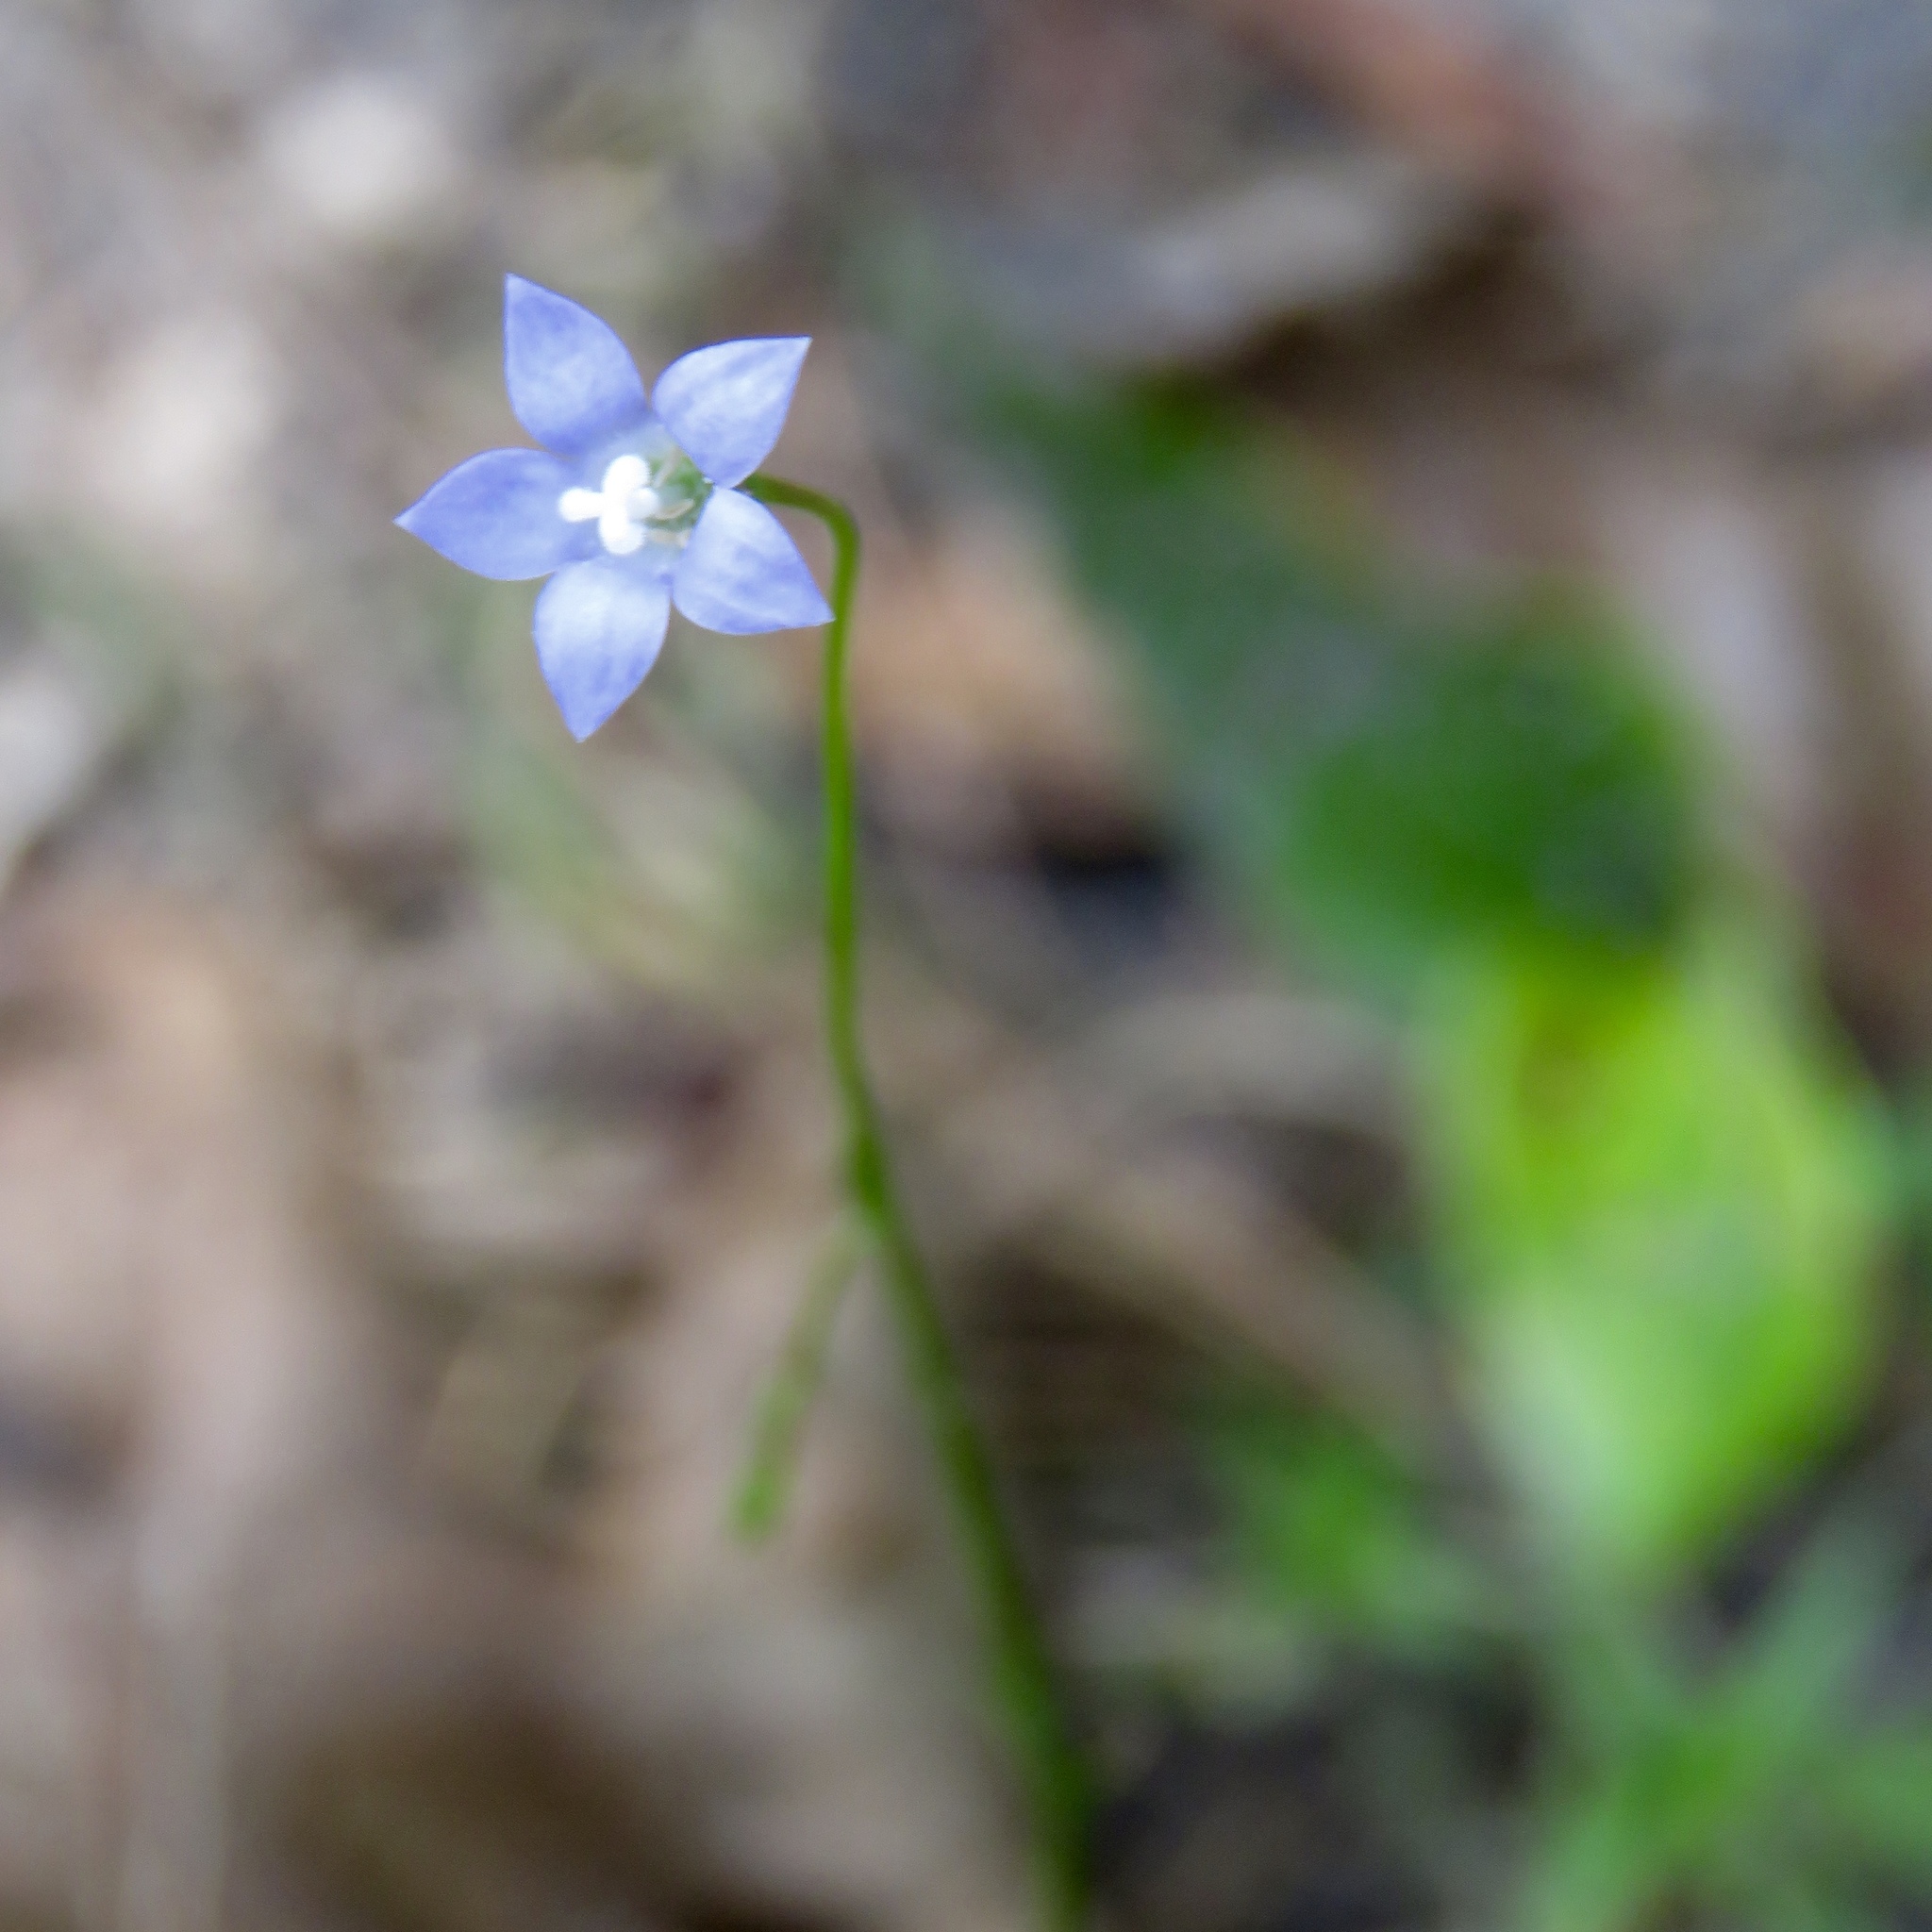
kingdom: Plantae
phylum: Tracheophyta
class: Magnoliopsida
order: Asterales
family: Campanulaceae
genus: Wahlenbergia
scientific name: Wahlenbergia marginata
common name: Southern rockbell
